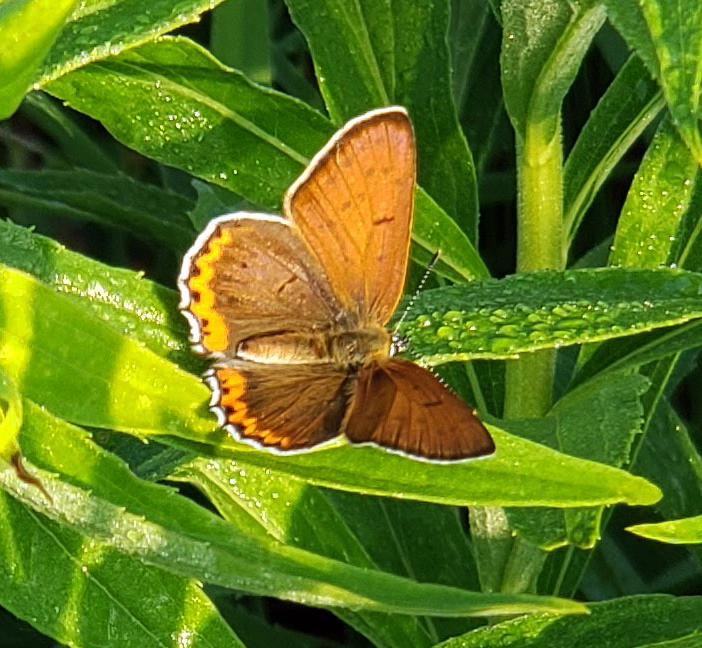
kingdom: Animalia
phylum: Arthropoda
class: Insecta
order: Lepidoptera
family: Lycaenidae
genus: Tharsalea
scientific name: Tharsalea hyllus
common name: Bronze copper
